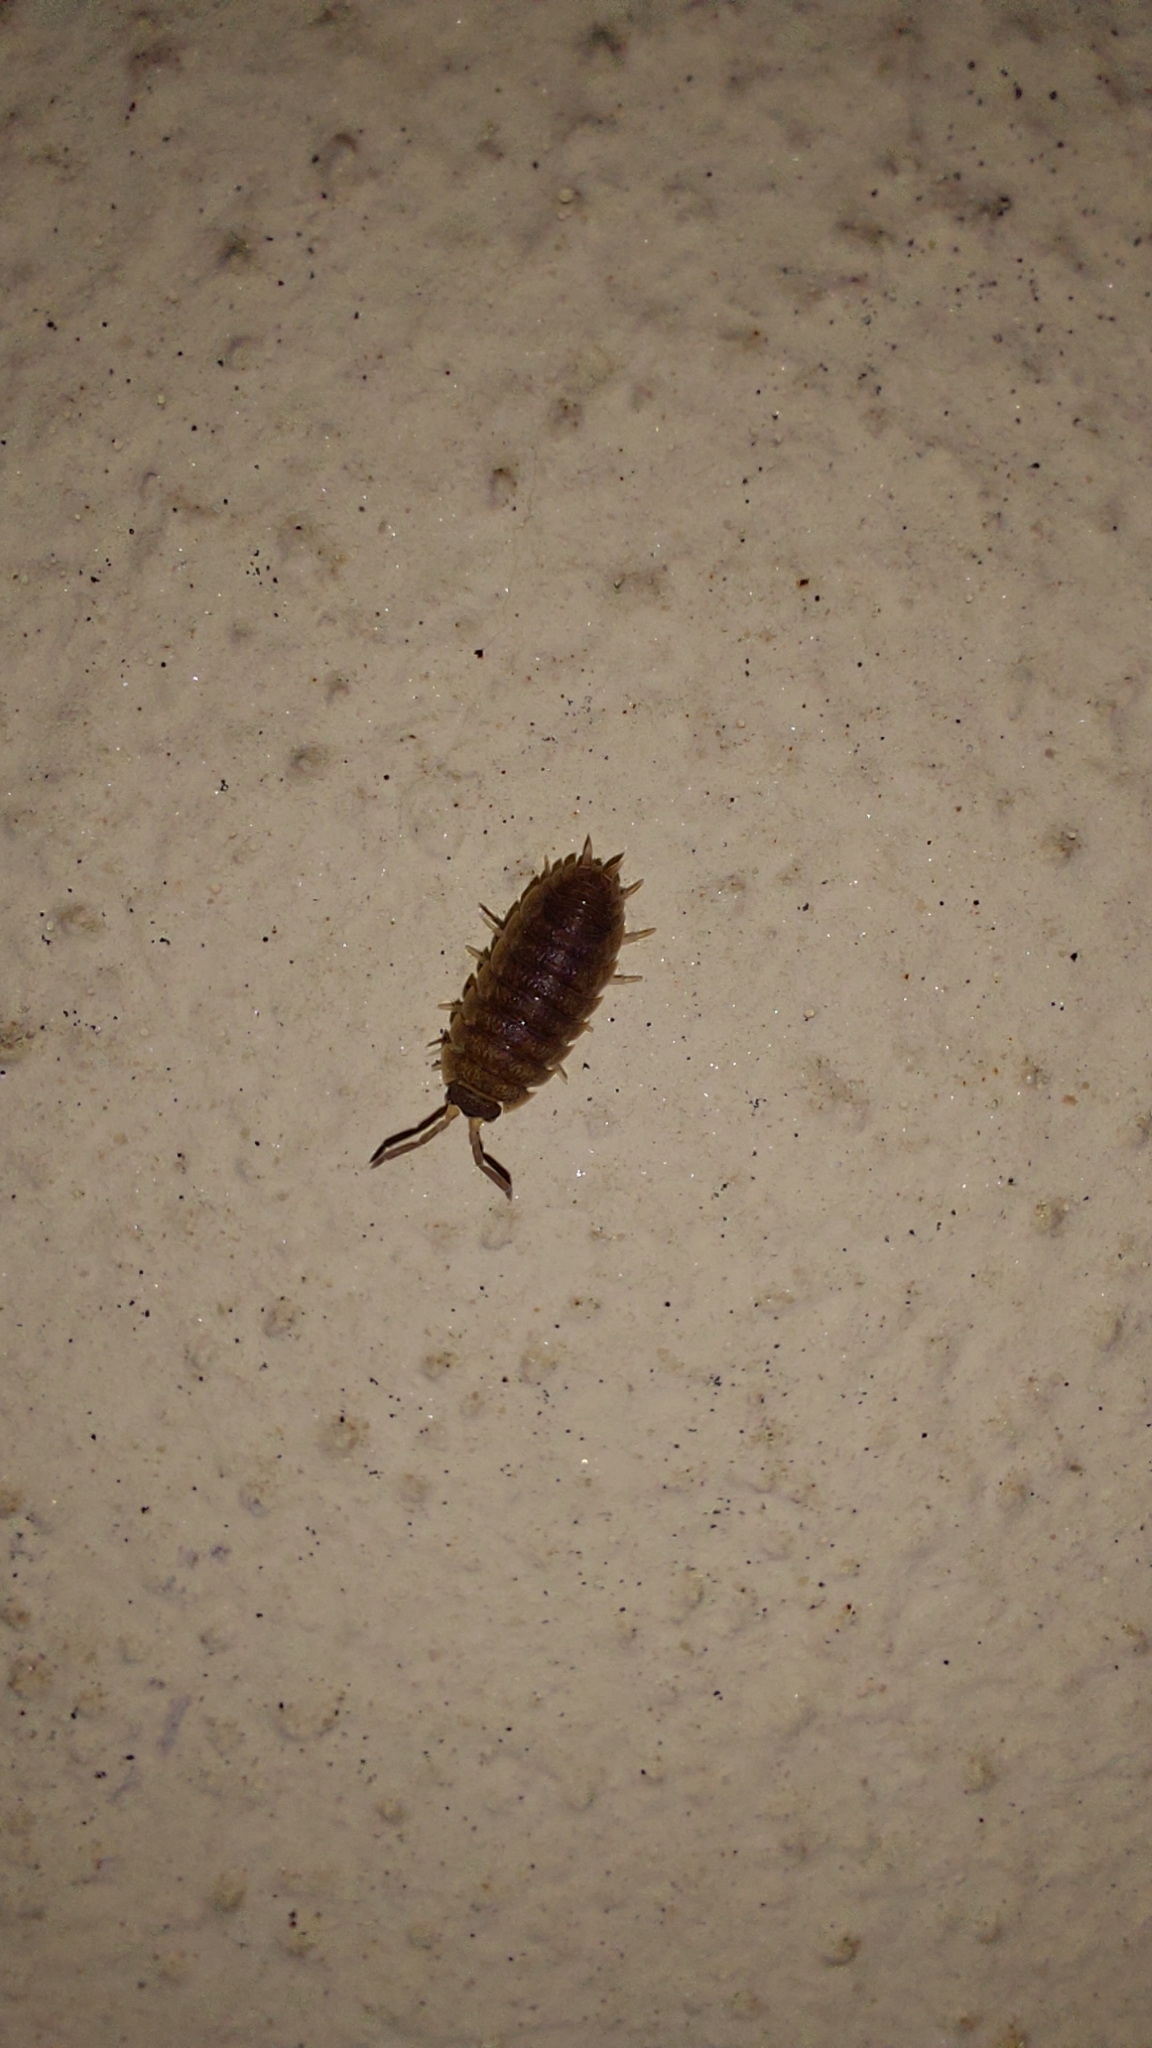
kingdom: Animalia
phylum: Arthropoda
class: Malacostraca
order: Isopoda
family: Porcellionidae
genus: Porcellio
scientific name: Porcellio scaber
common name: Common rough woodlouse
